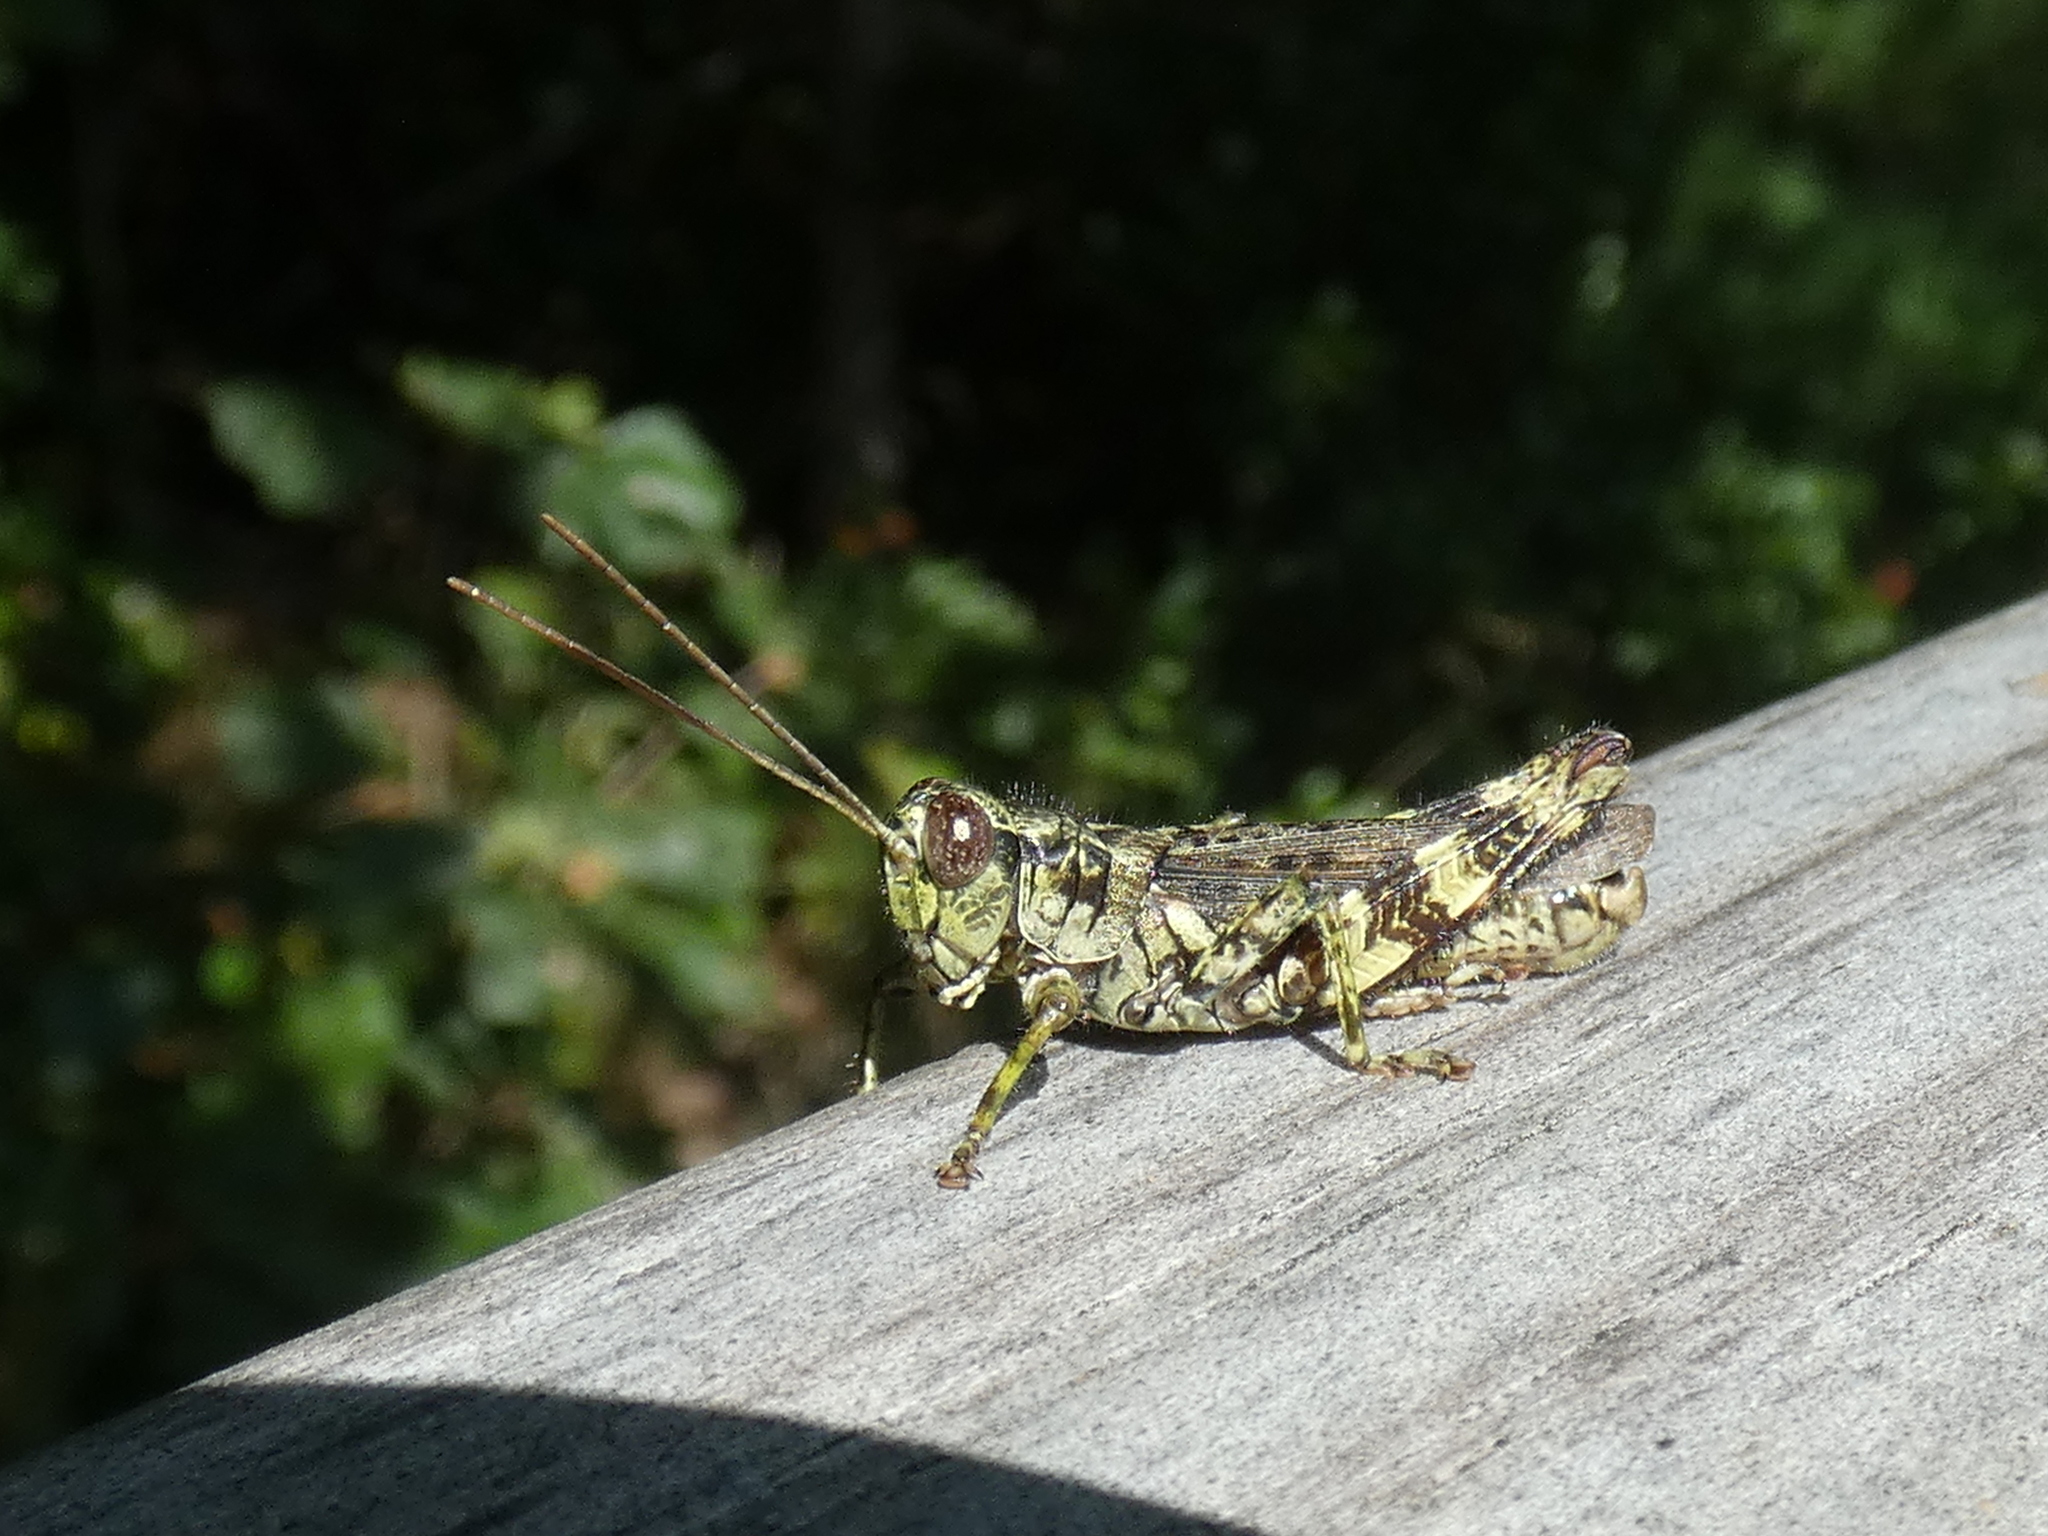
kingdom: Animalia
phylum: Arthropoda
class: Insecta
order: Orthoptera
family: Acrididae
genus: Melanoplus
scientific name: Melanoplus punctulatus
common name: Pine-tree spur-throat grasshopper
